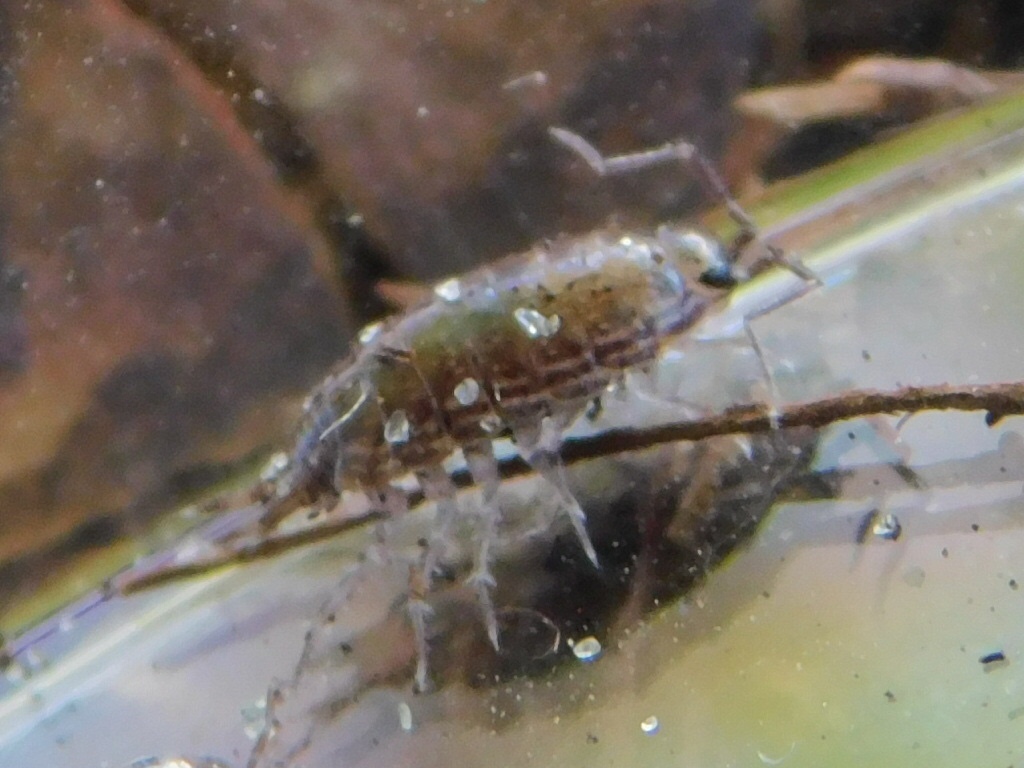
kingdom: Animalia
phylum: Arthropoda
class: Malacostraca
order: Isopoda
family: Philosciidae
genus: Atlantoscia
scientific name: Atlantoscia floridana
